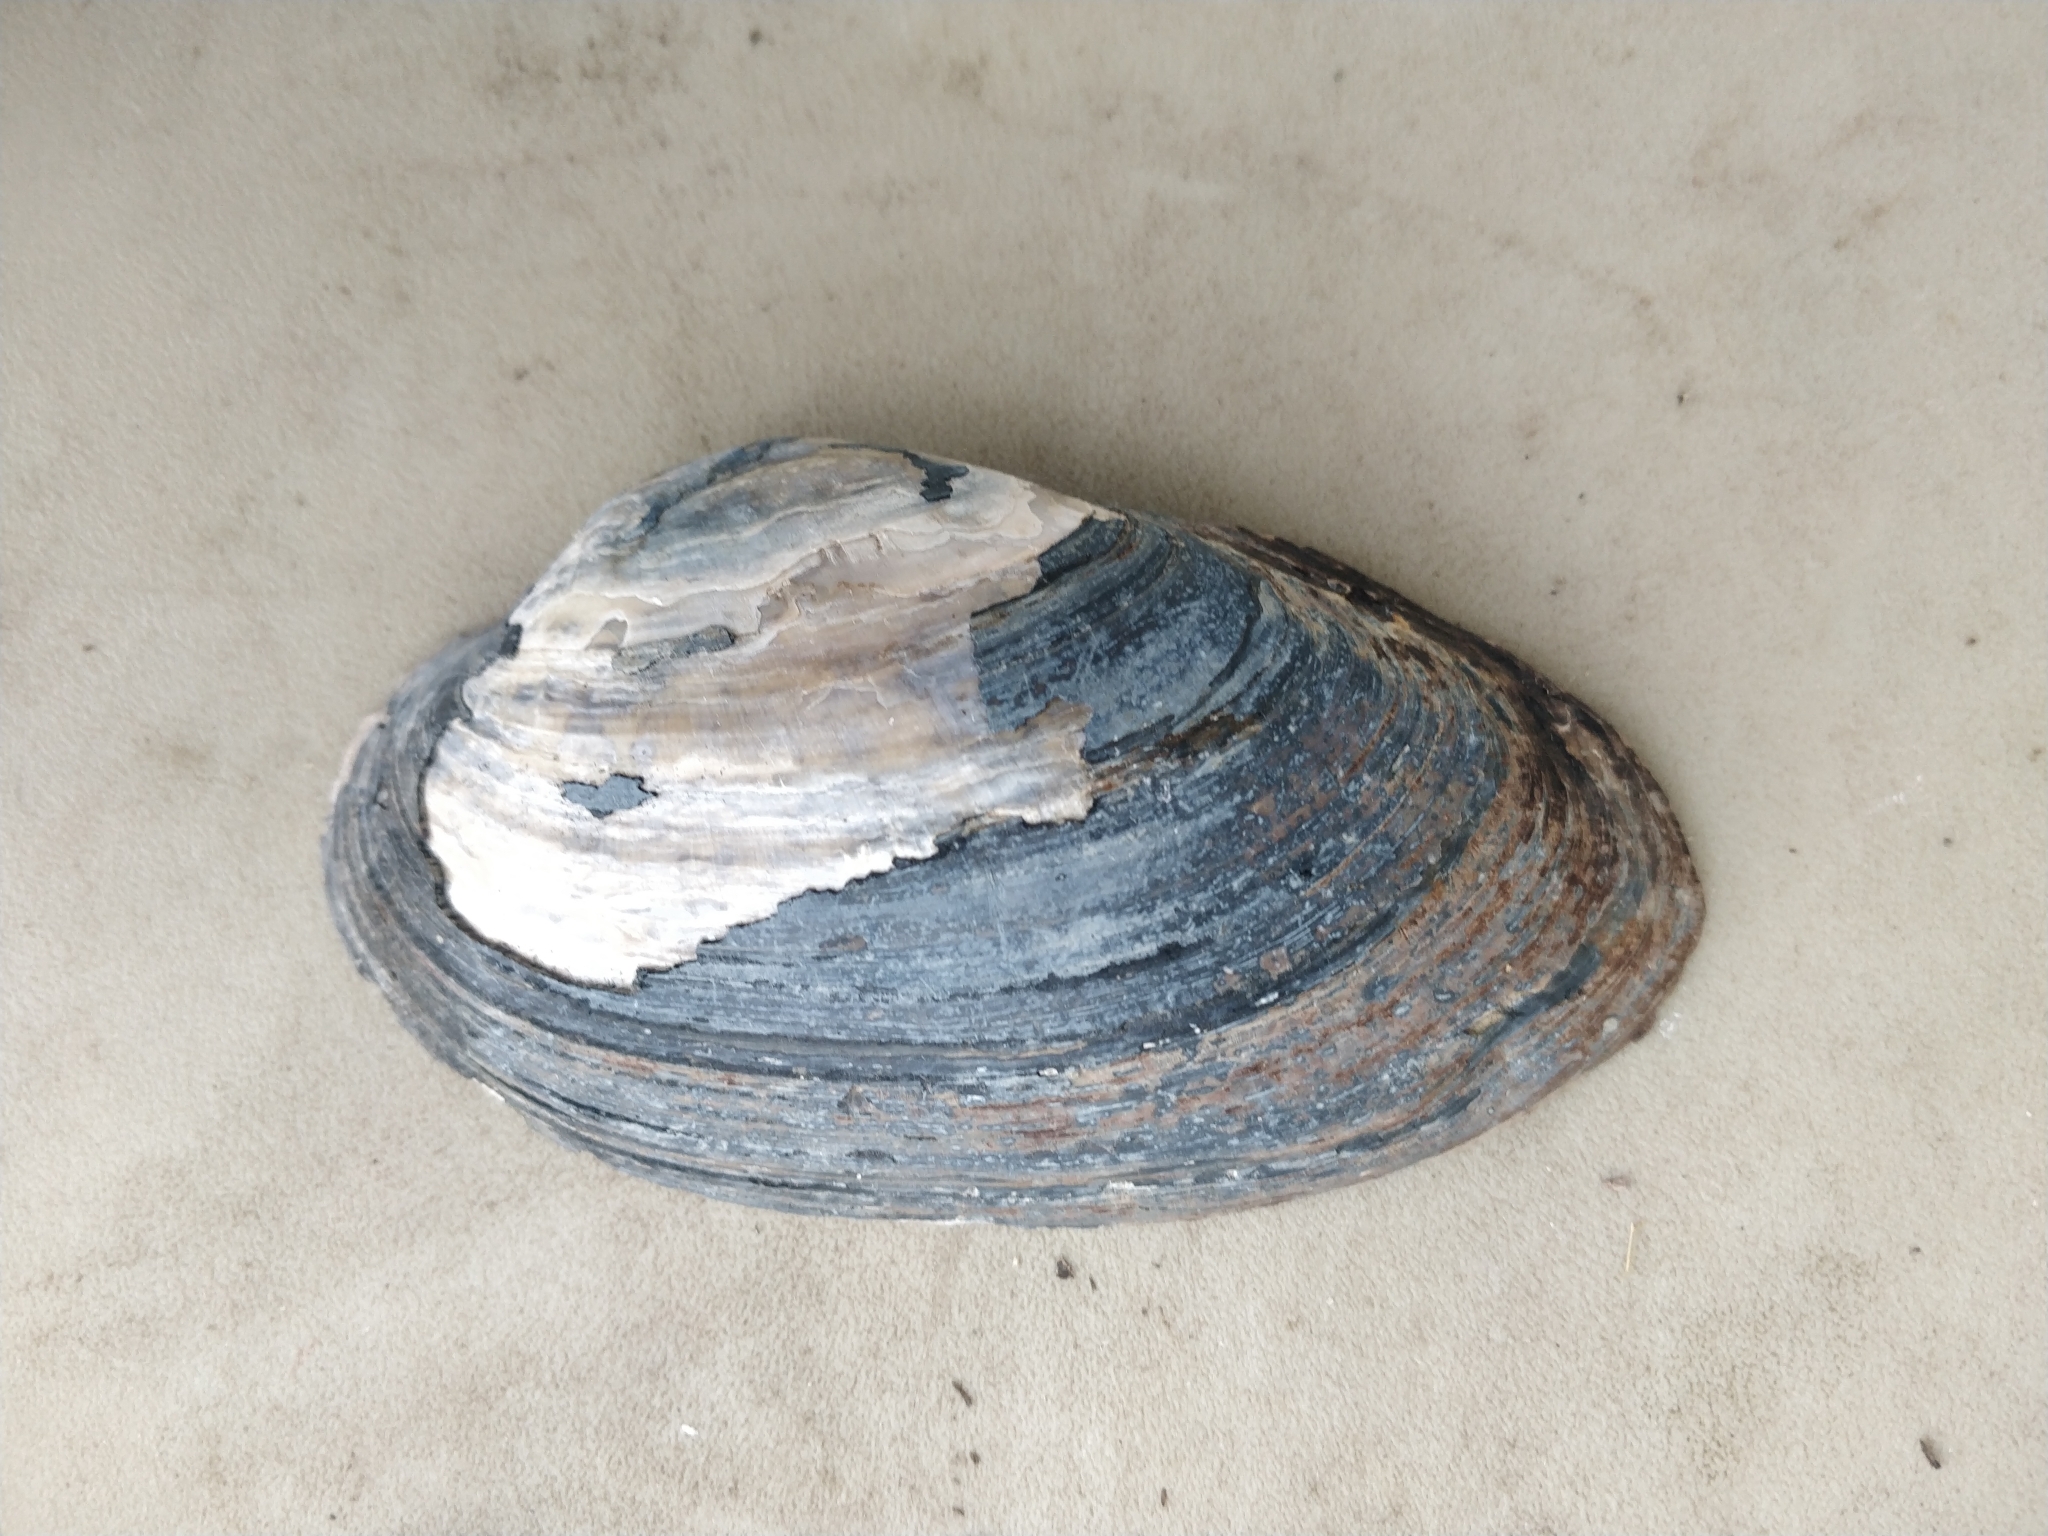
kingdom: Animalia
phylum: Mollusca
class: Bivalvia
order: Unionida
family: Unionidae
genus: Pyganodon
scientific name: Pyganodon grandis
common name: Giant floater
